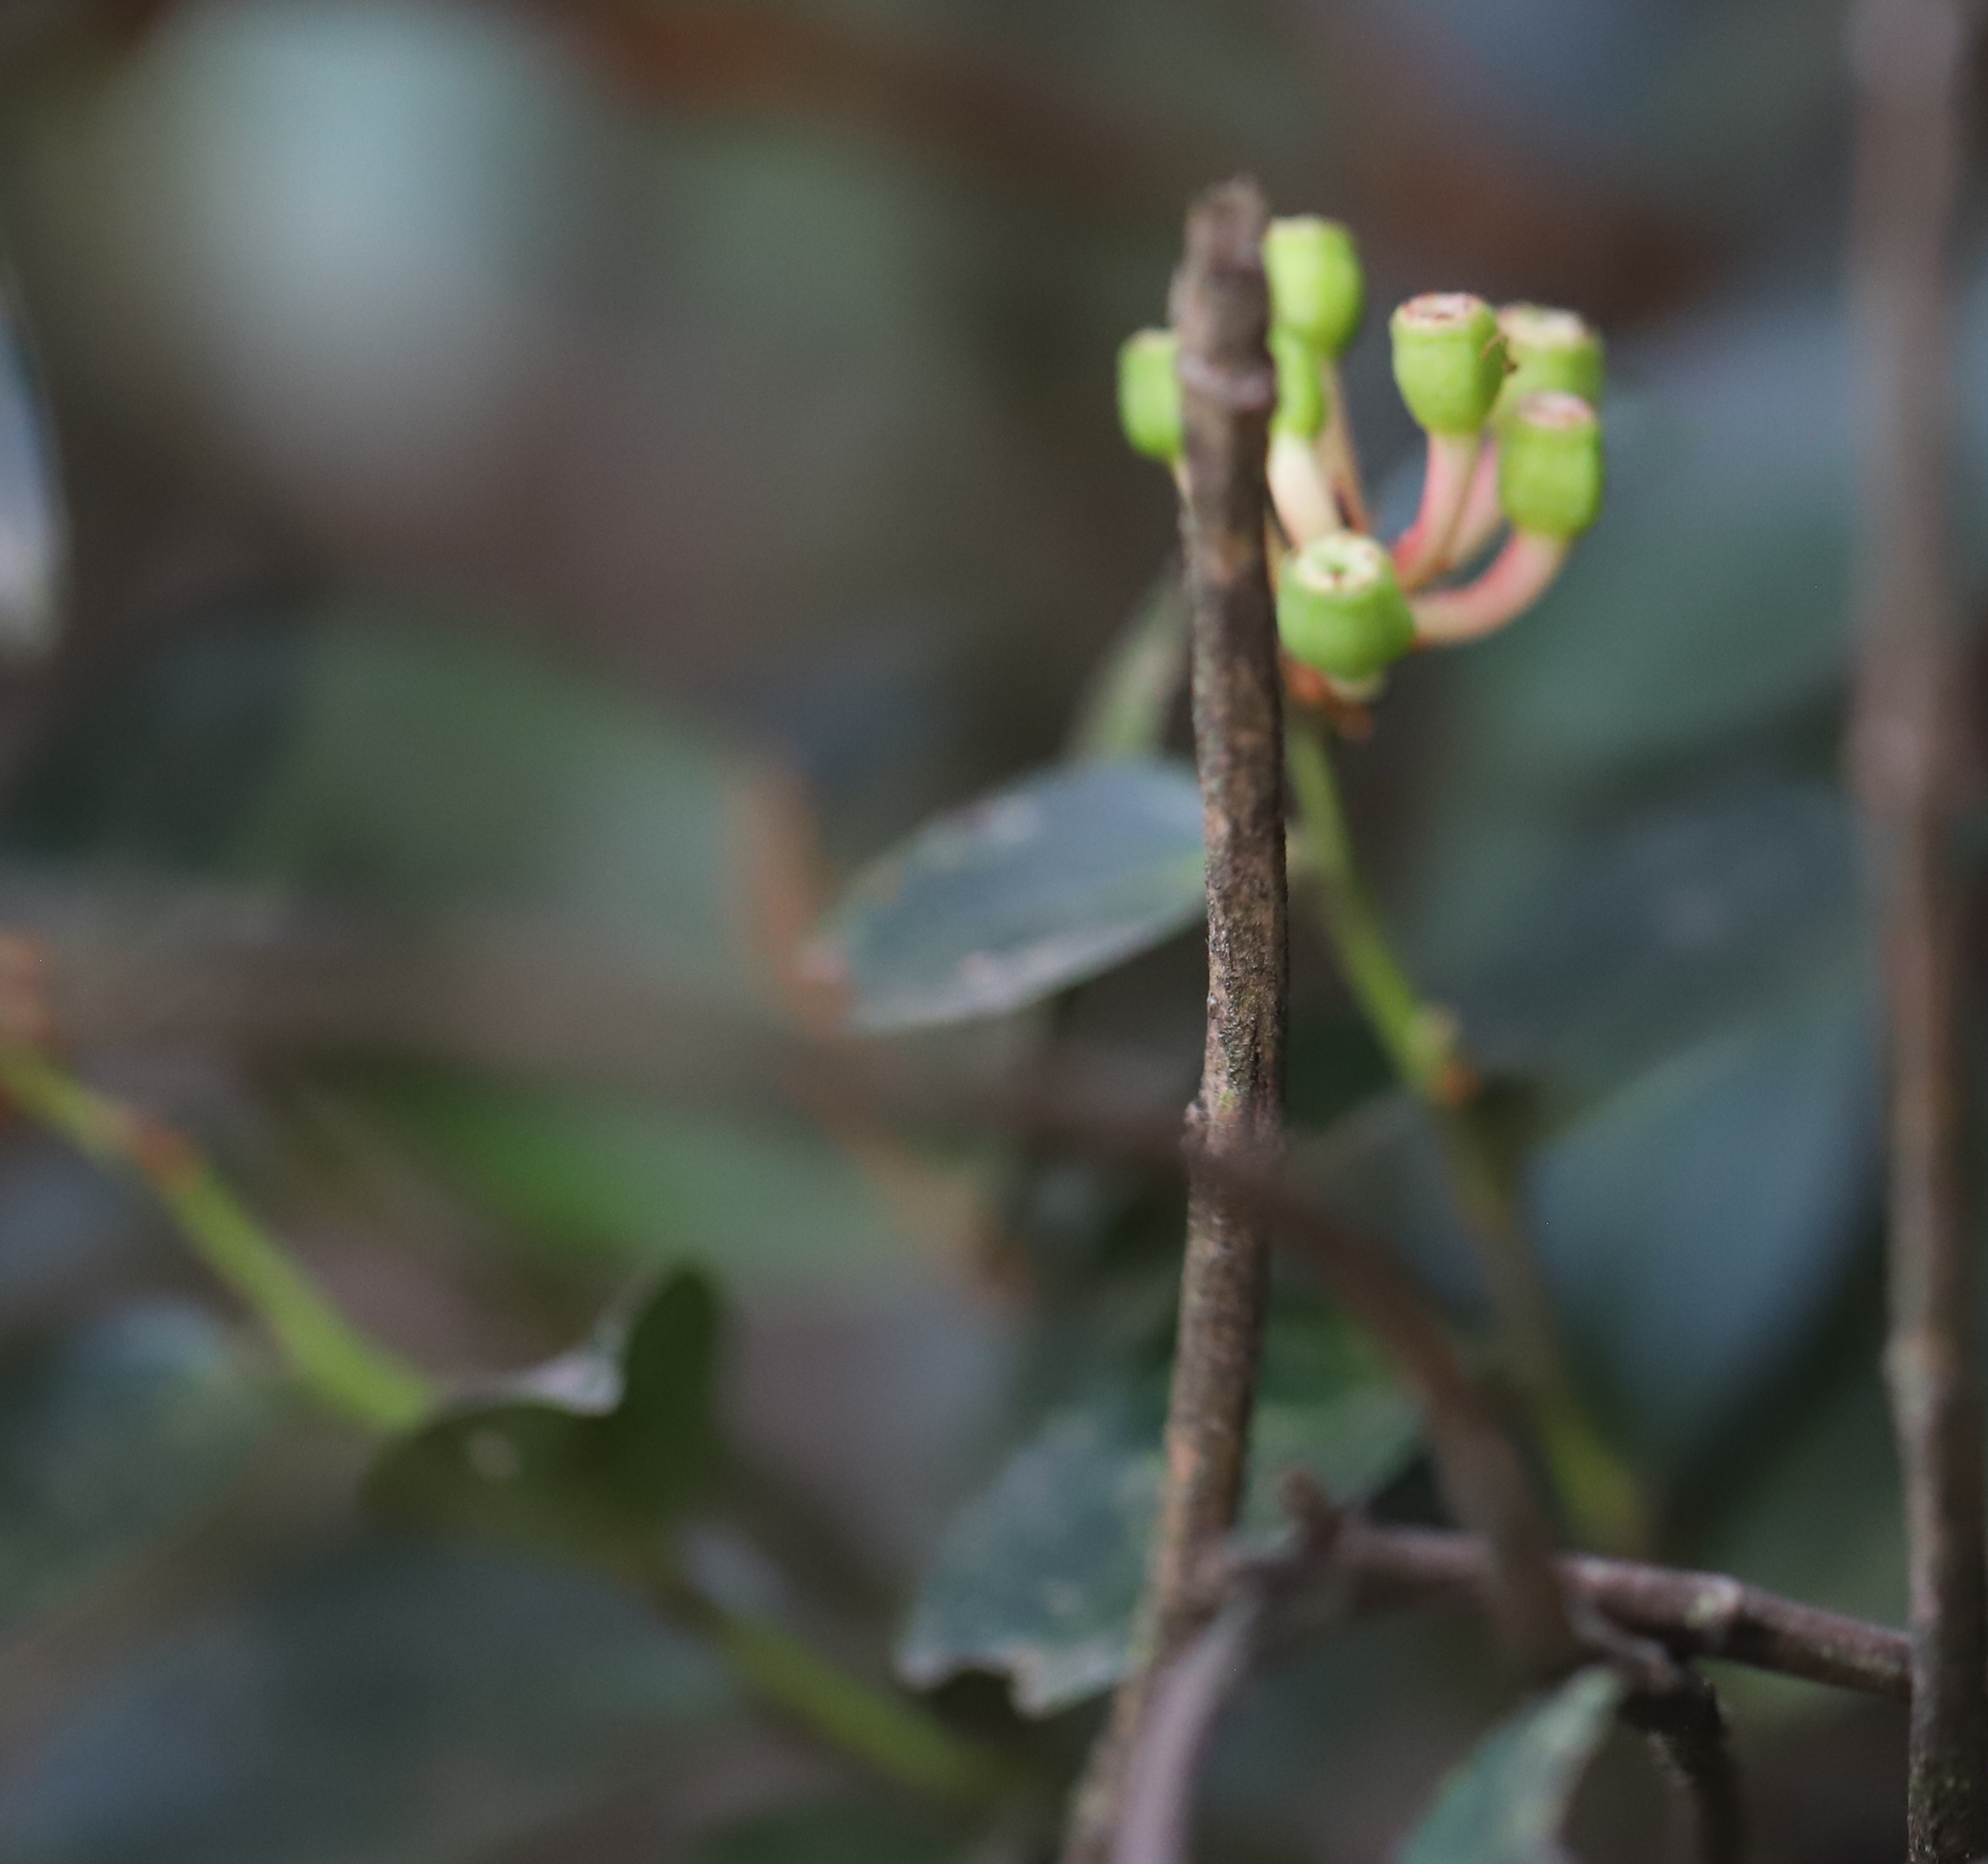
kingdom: Plantae
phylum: Tracheophyta
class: Magnoliopsida
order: Ericales
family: Ericaceae
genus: Cavendishia
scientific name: Cavendishia bracteata
